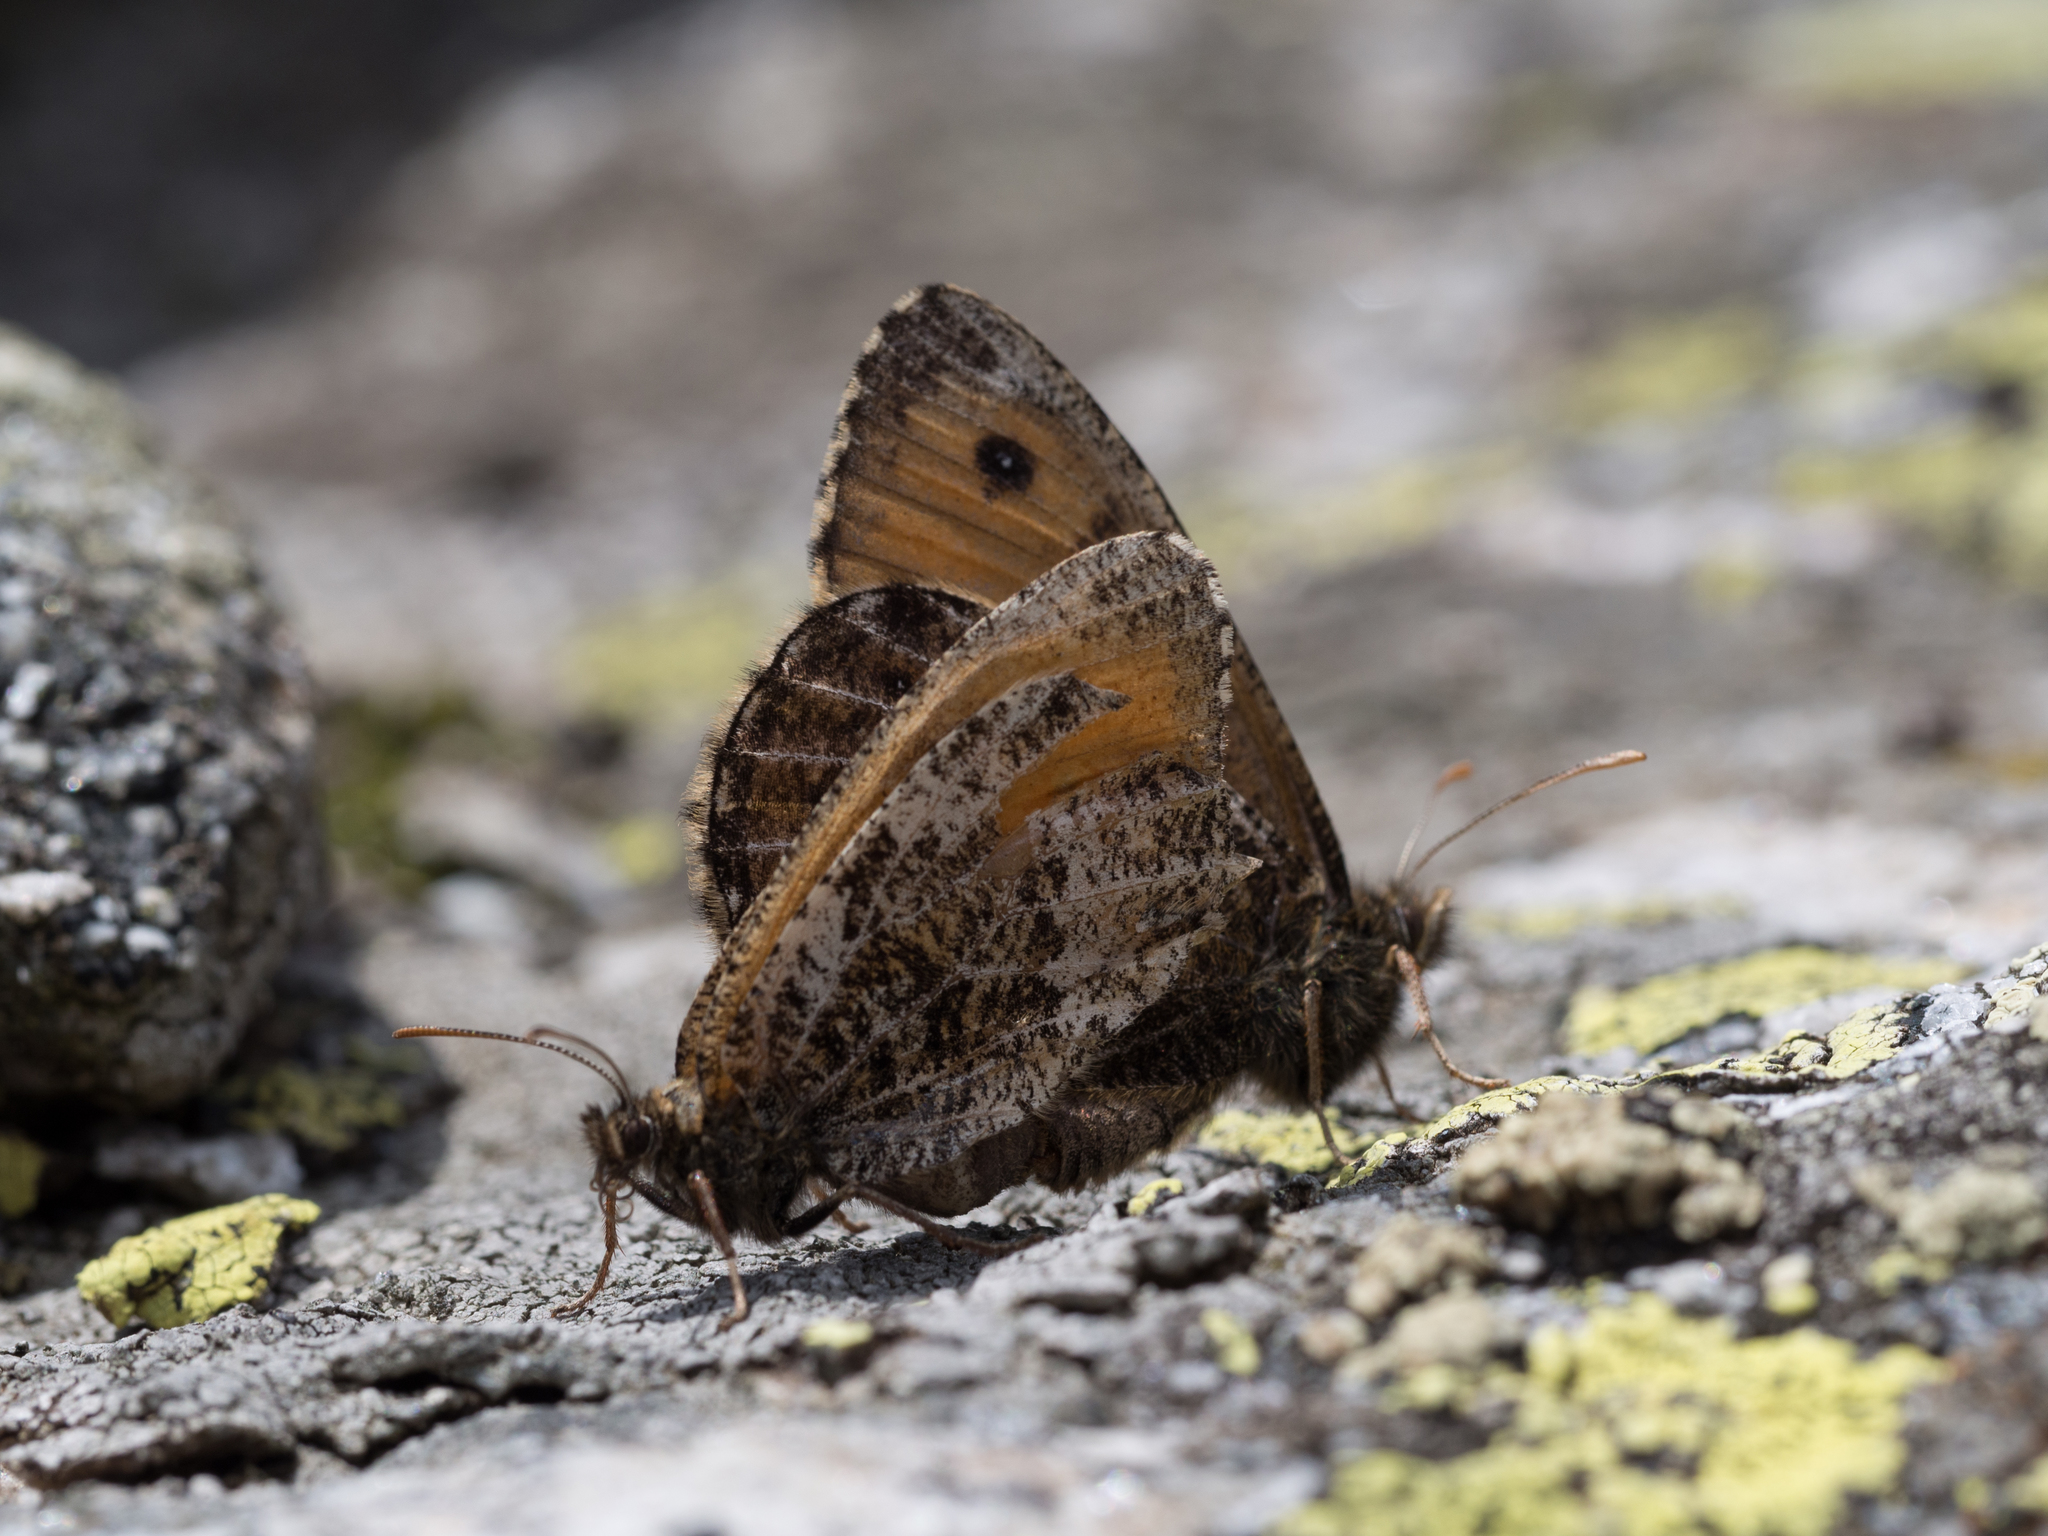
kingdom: Animalia
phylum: Arthropoda
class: Insecta
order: Lepidoptera
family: Nymphalidae
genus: Oeneis
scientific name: Oeneis aello
